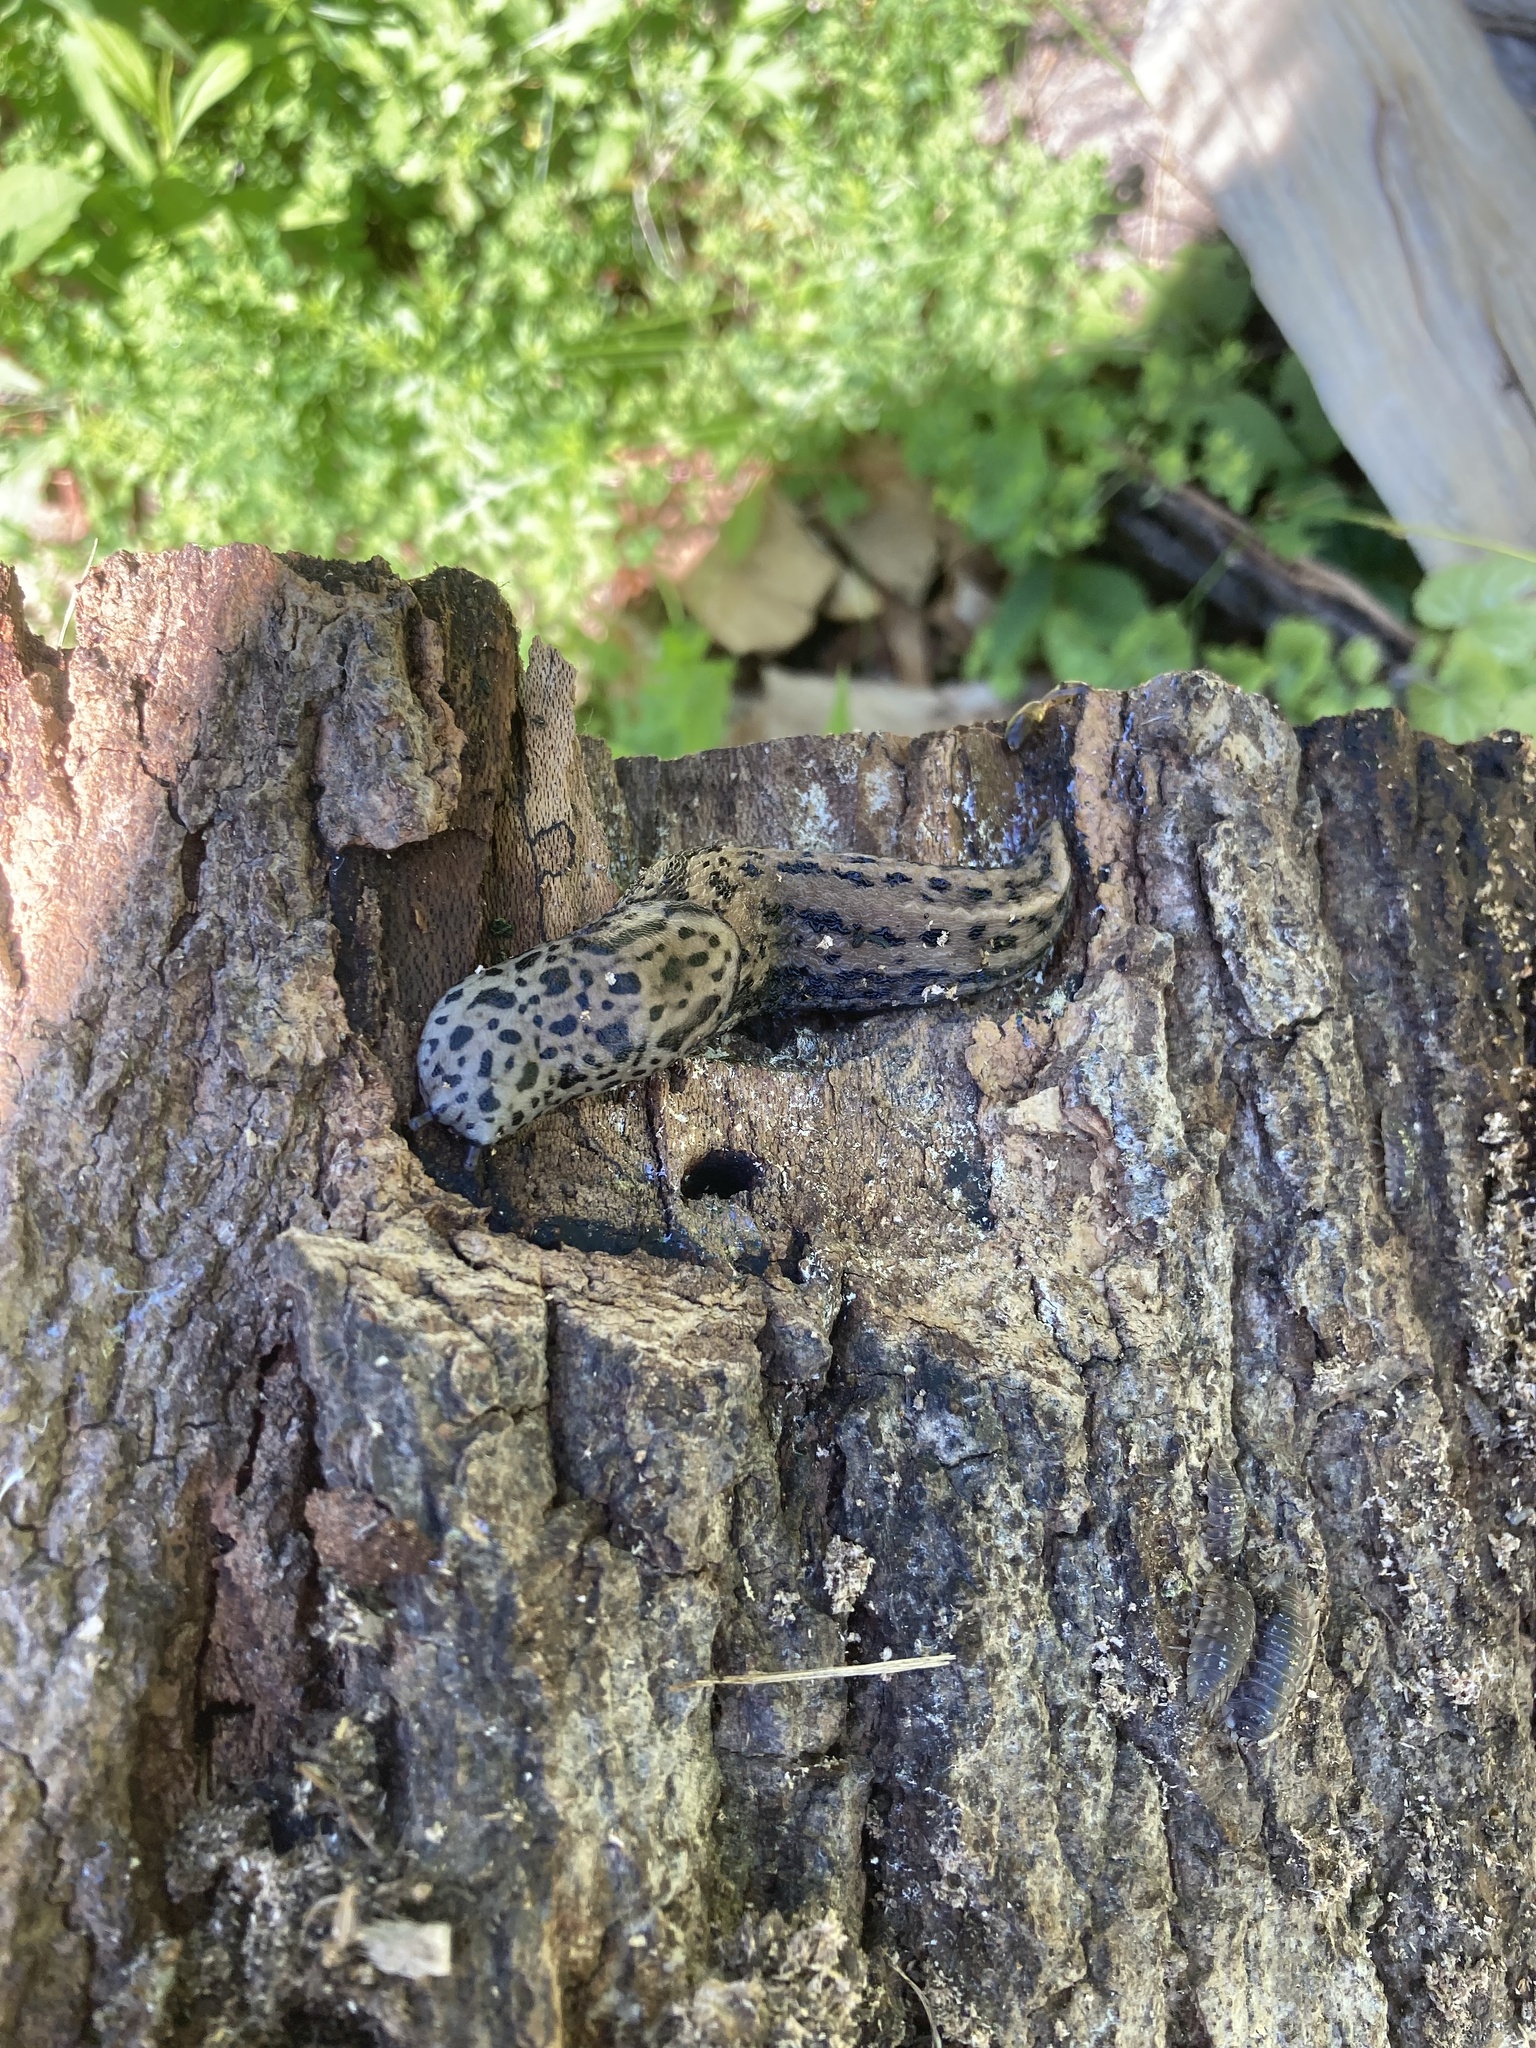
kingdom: Animalia
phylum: Mollusca
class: Gastropoda
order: Stylommatophora
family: Limacidae
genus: Limax
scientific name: Limax maximus
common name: Great grey slug
